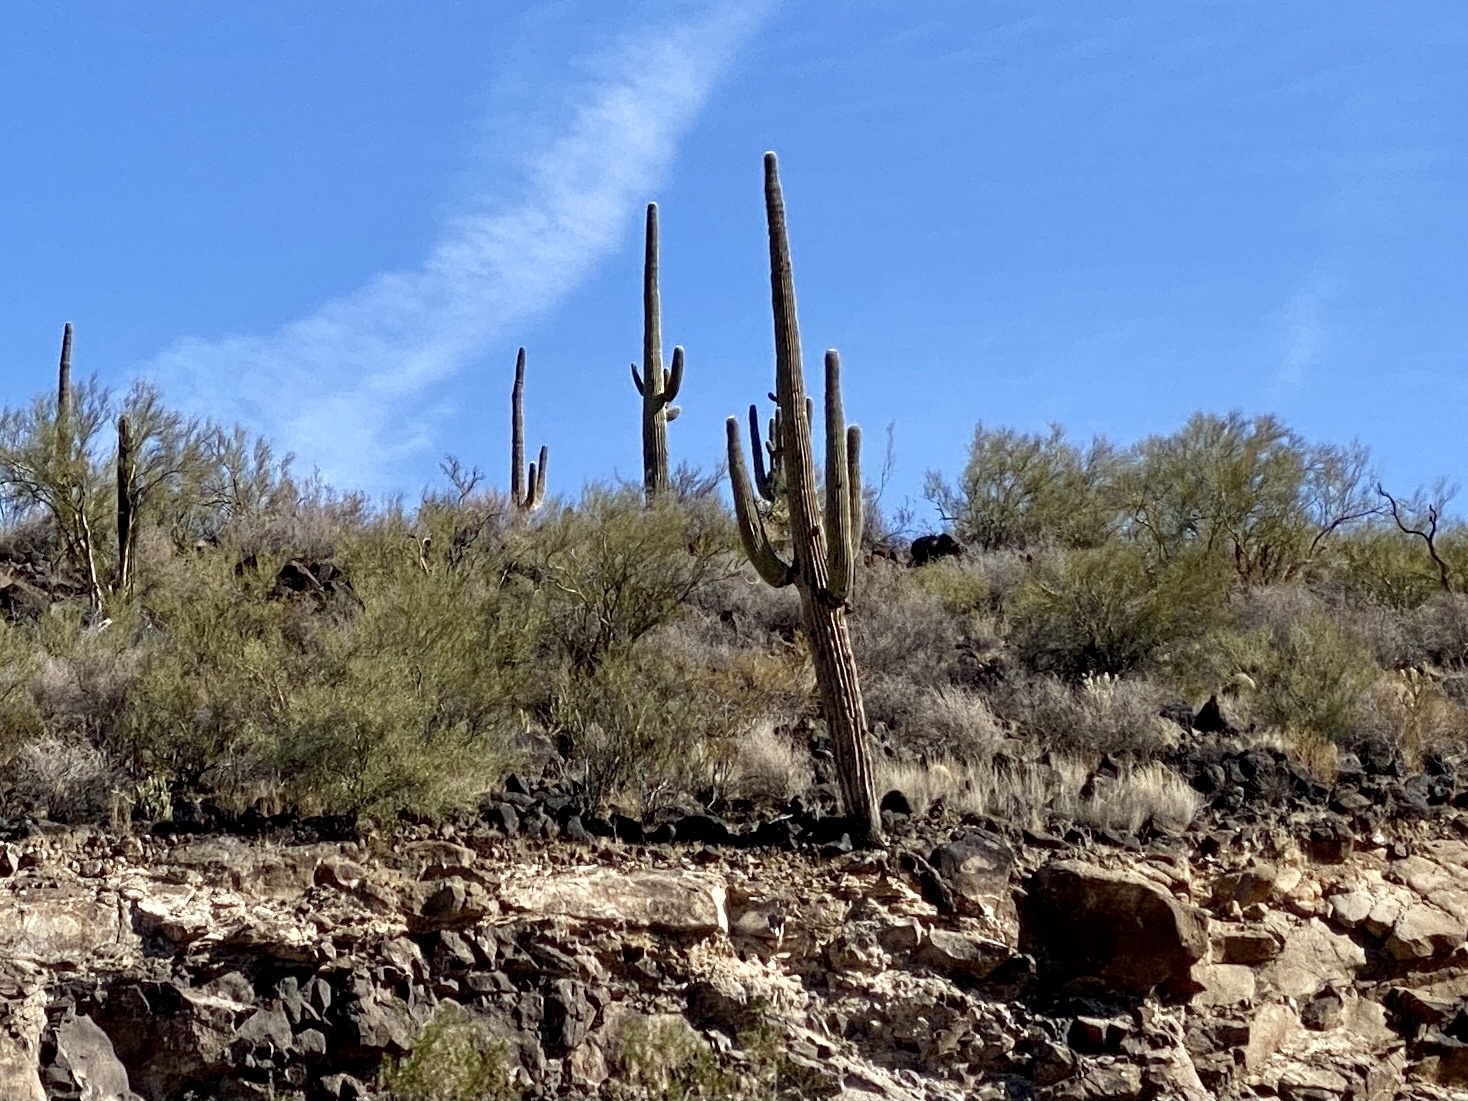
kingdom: Plantae
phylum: Tracheophyta
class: Magnoliopsida
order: Caryophyllales
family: Cactaceae
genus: Carnegiea
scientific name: Carnegiea gigantea
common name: Saguaro
